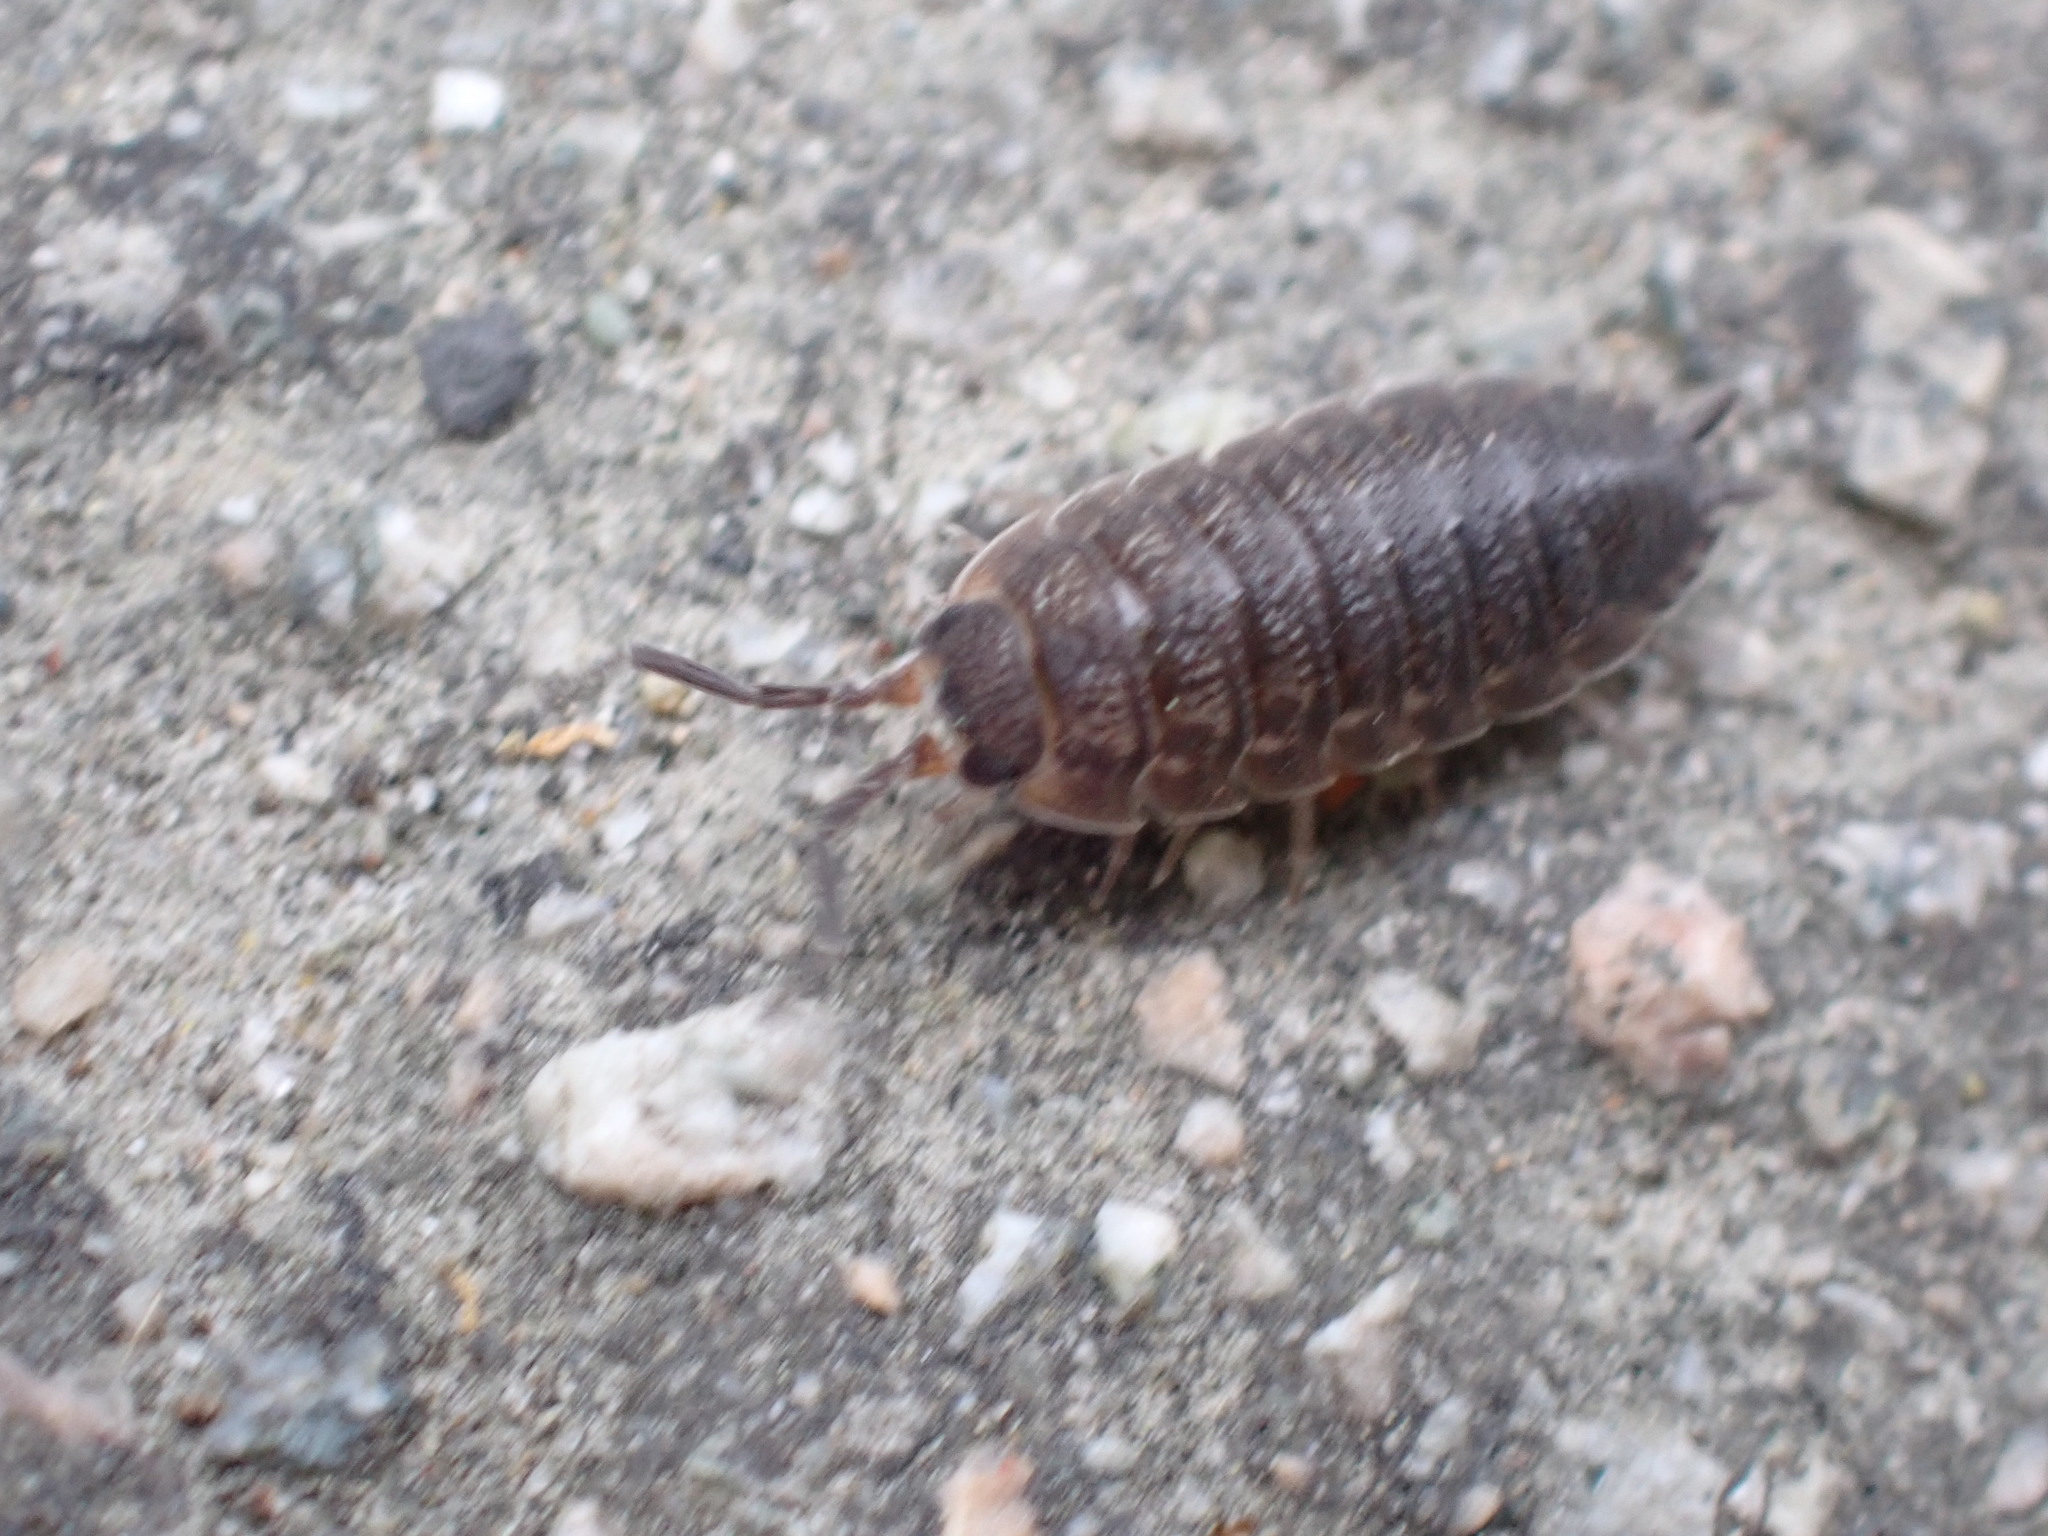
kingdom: Animalia
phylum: Arthropoda
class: Malacostraca
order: Isopoda
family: Porcellionidae
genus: Porcellio
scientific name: Porcellio scaber
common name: Common rough woodlouse
